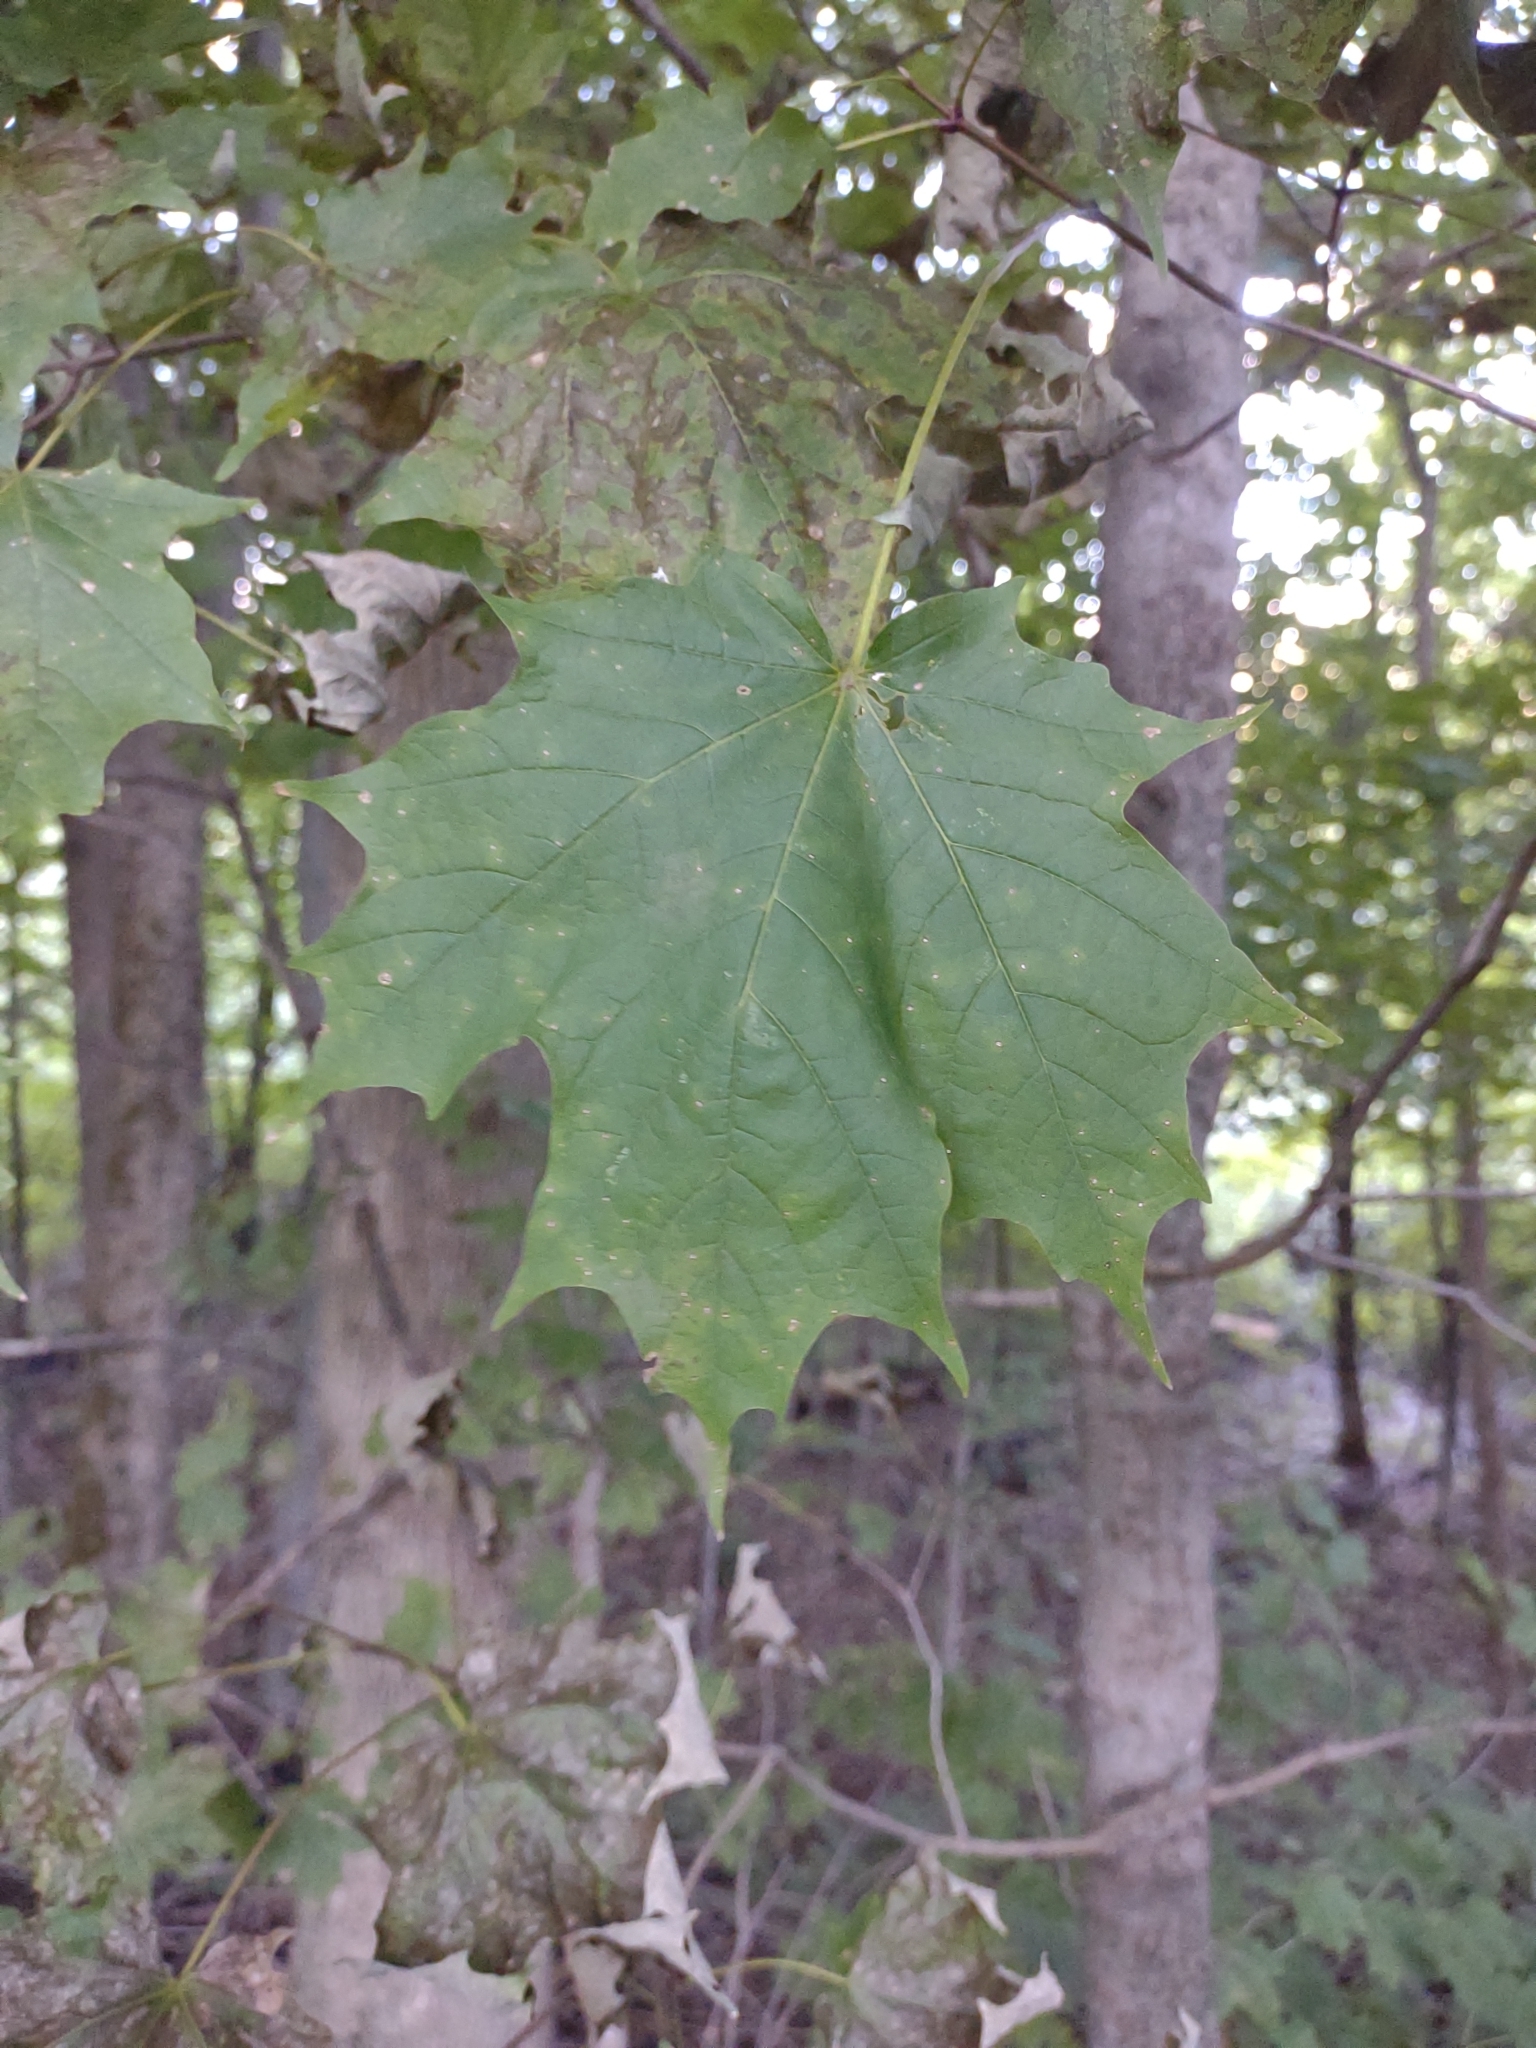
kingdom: Plantae
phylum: Tracheophyta
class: Magnoliopsida
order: Sapindales
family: Sapindaceae
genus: Acer
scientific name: Acer saccharum
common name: Sugar maple
